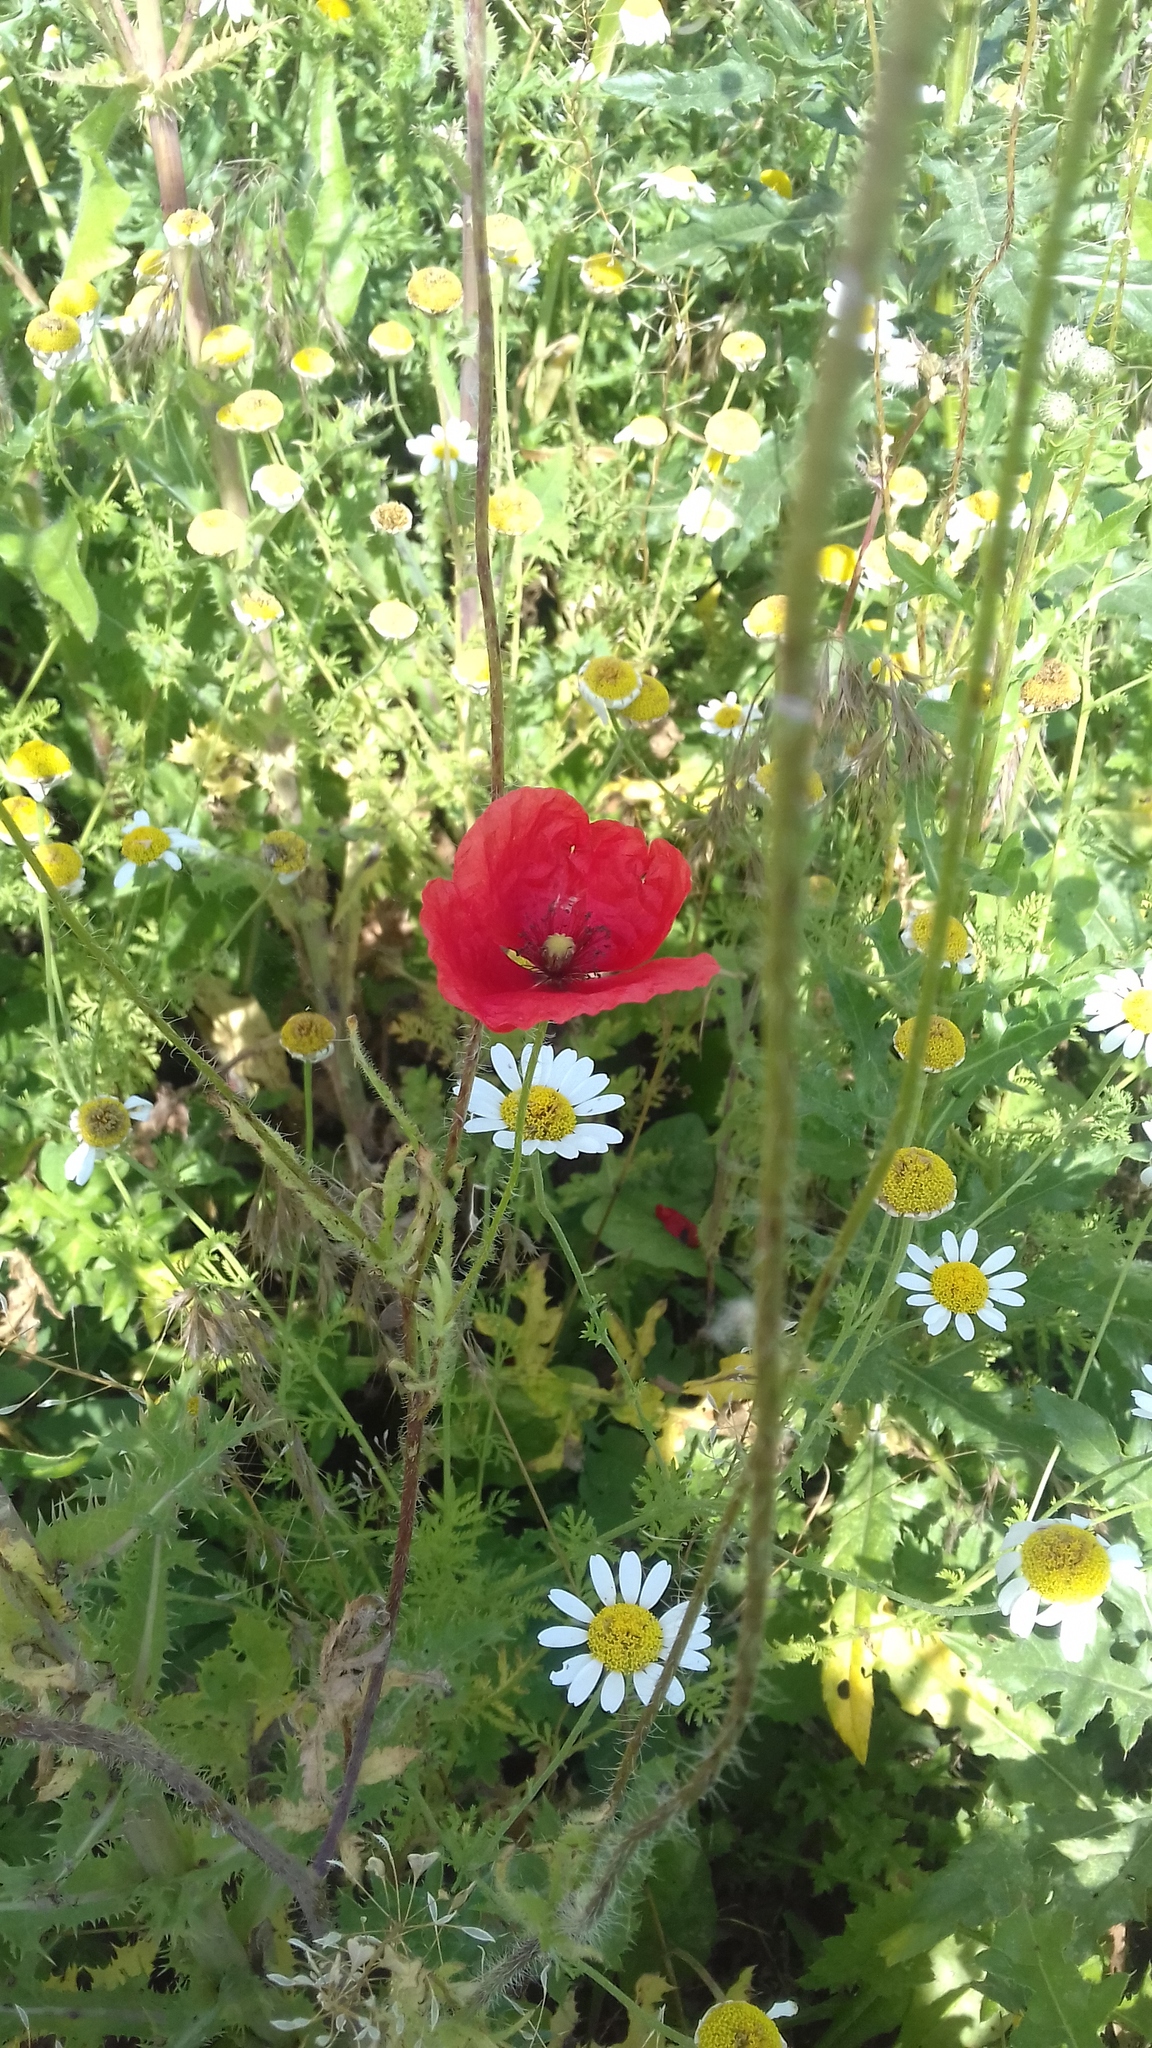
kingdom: Plantae
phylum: Tracheophyta
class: Magnoliopsida
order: Ranunculales
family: Papaveraceae
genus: Papaver
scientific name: Papaver rhoeas
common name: Corn poppy
